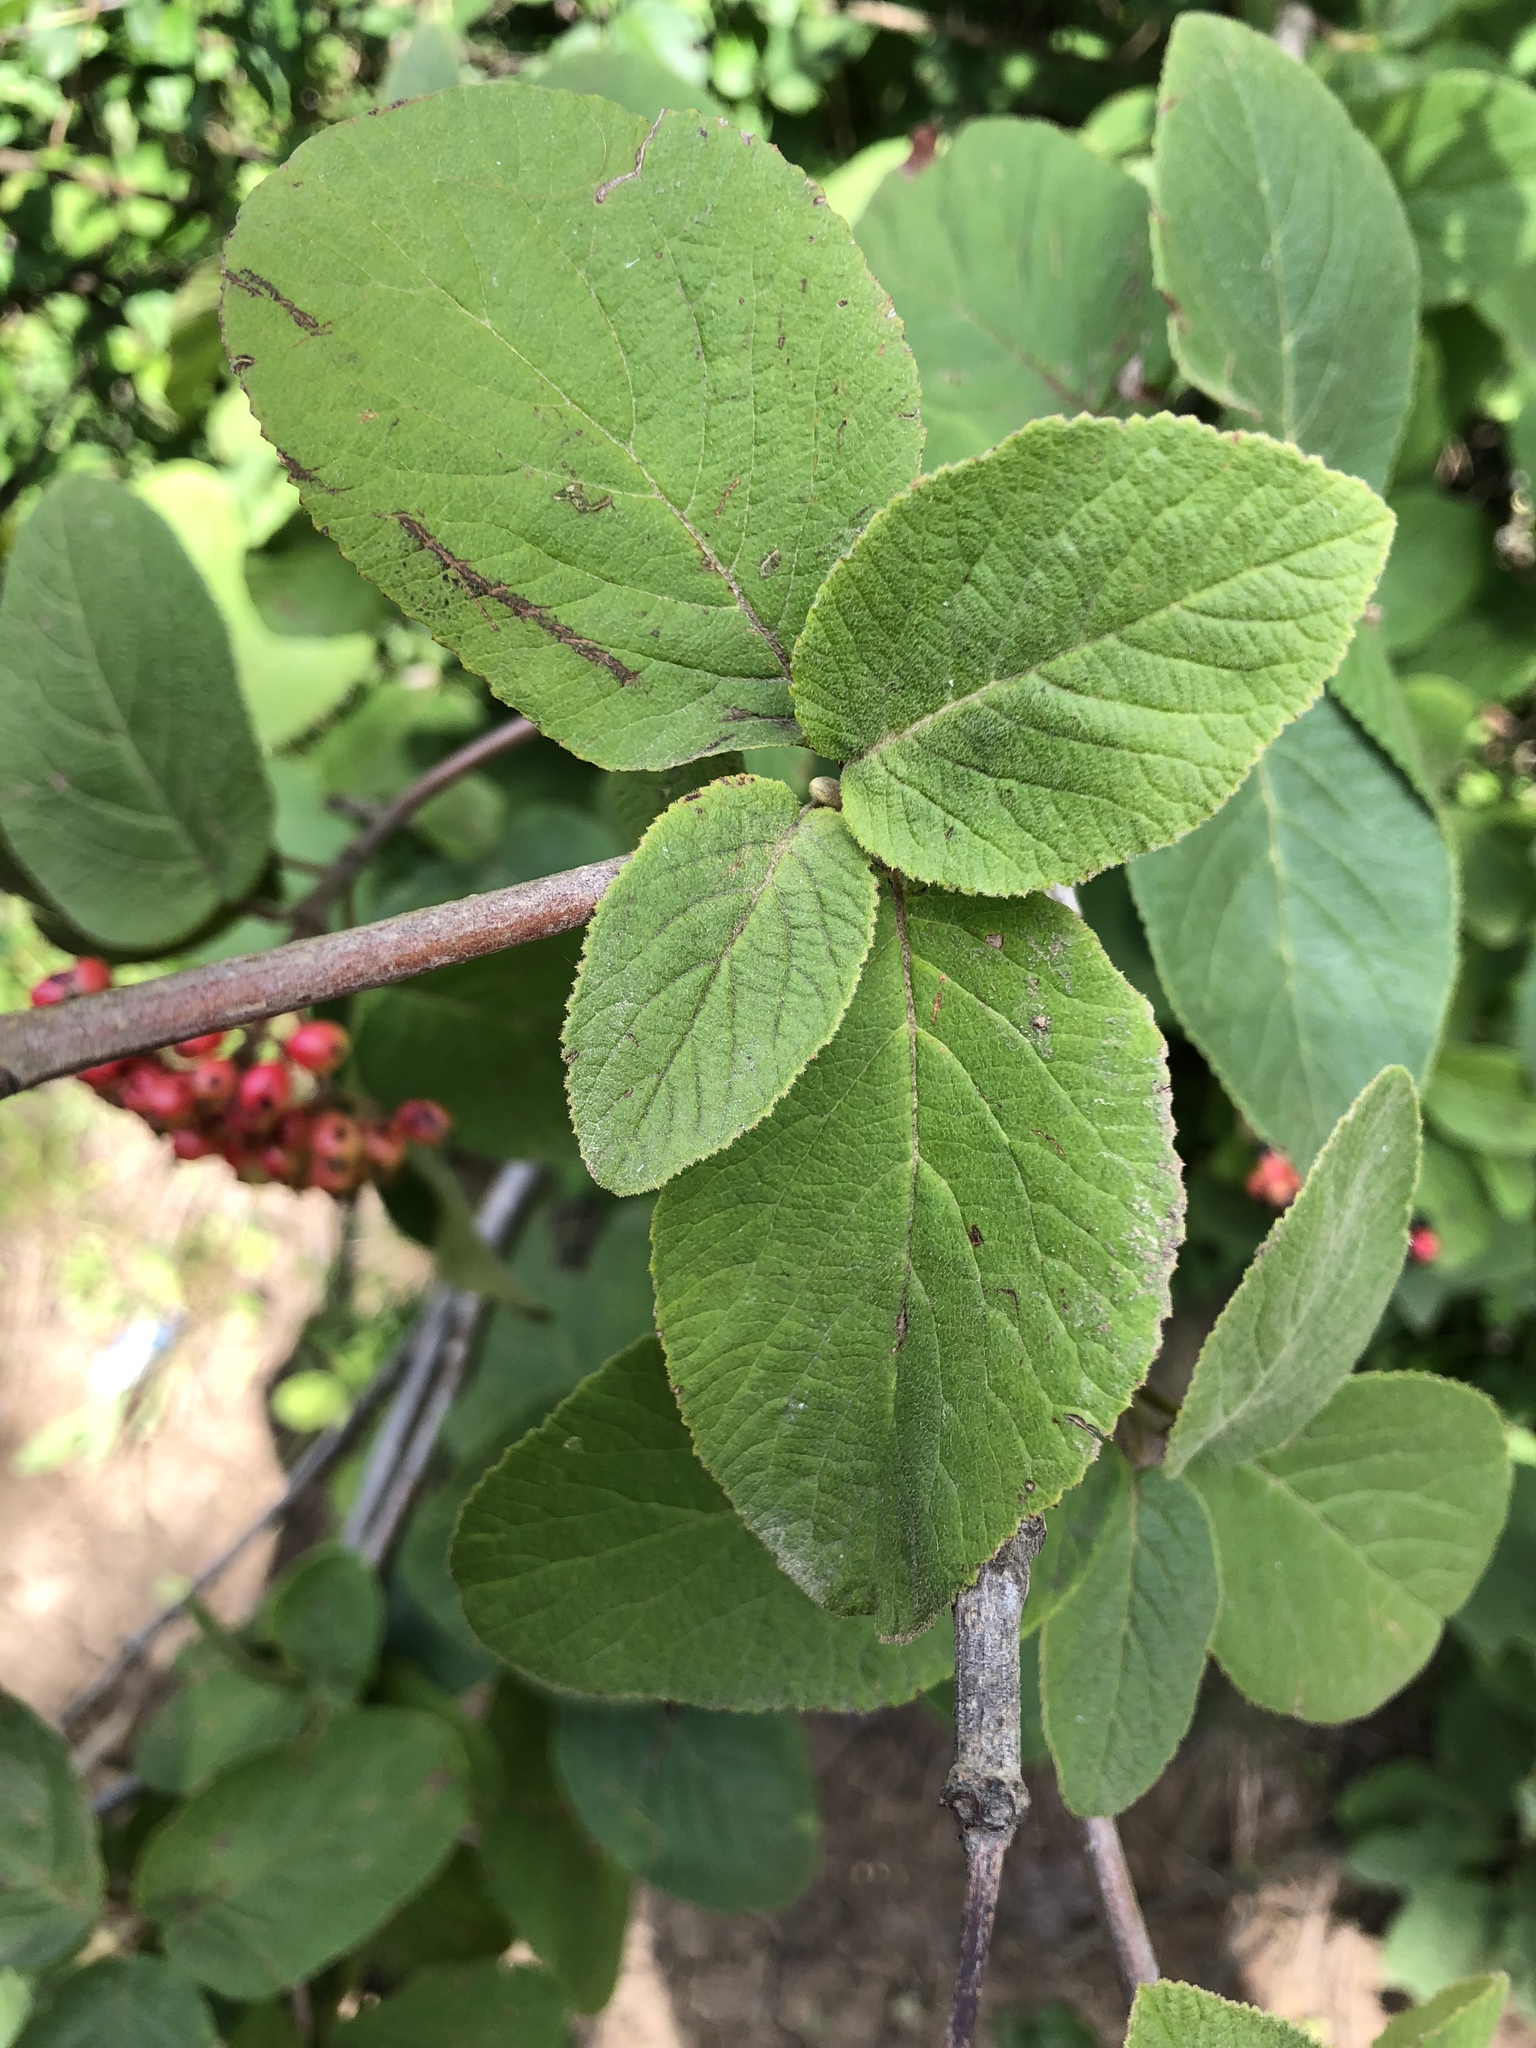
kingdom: Plantae
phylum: Tracheophyta
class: Magnoliopsida
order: Dipsacales
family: Viburnaceae
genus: Viburnum
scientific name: Viburnum lantana
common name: Wayfaring tree
